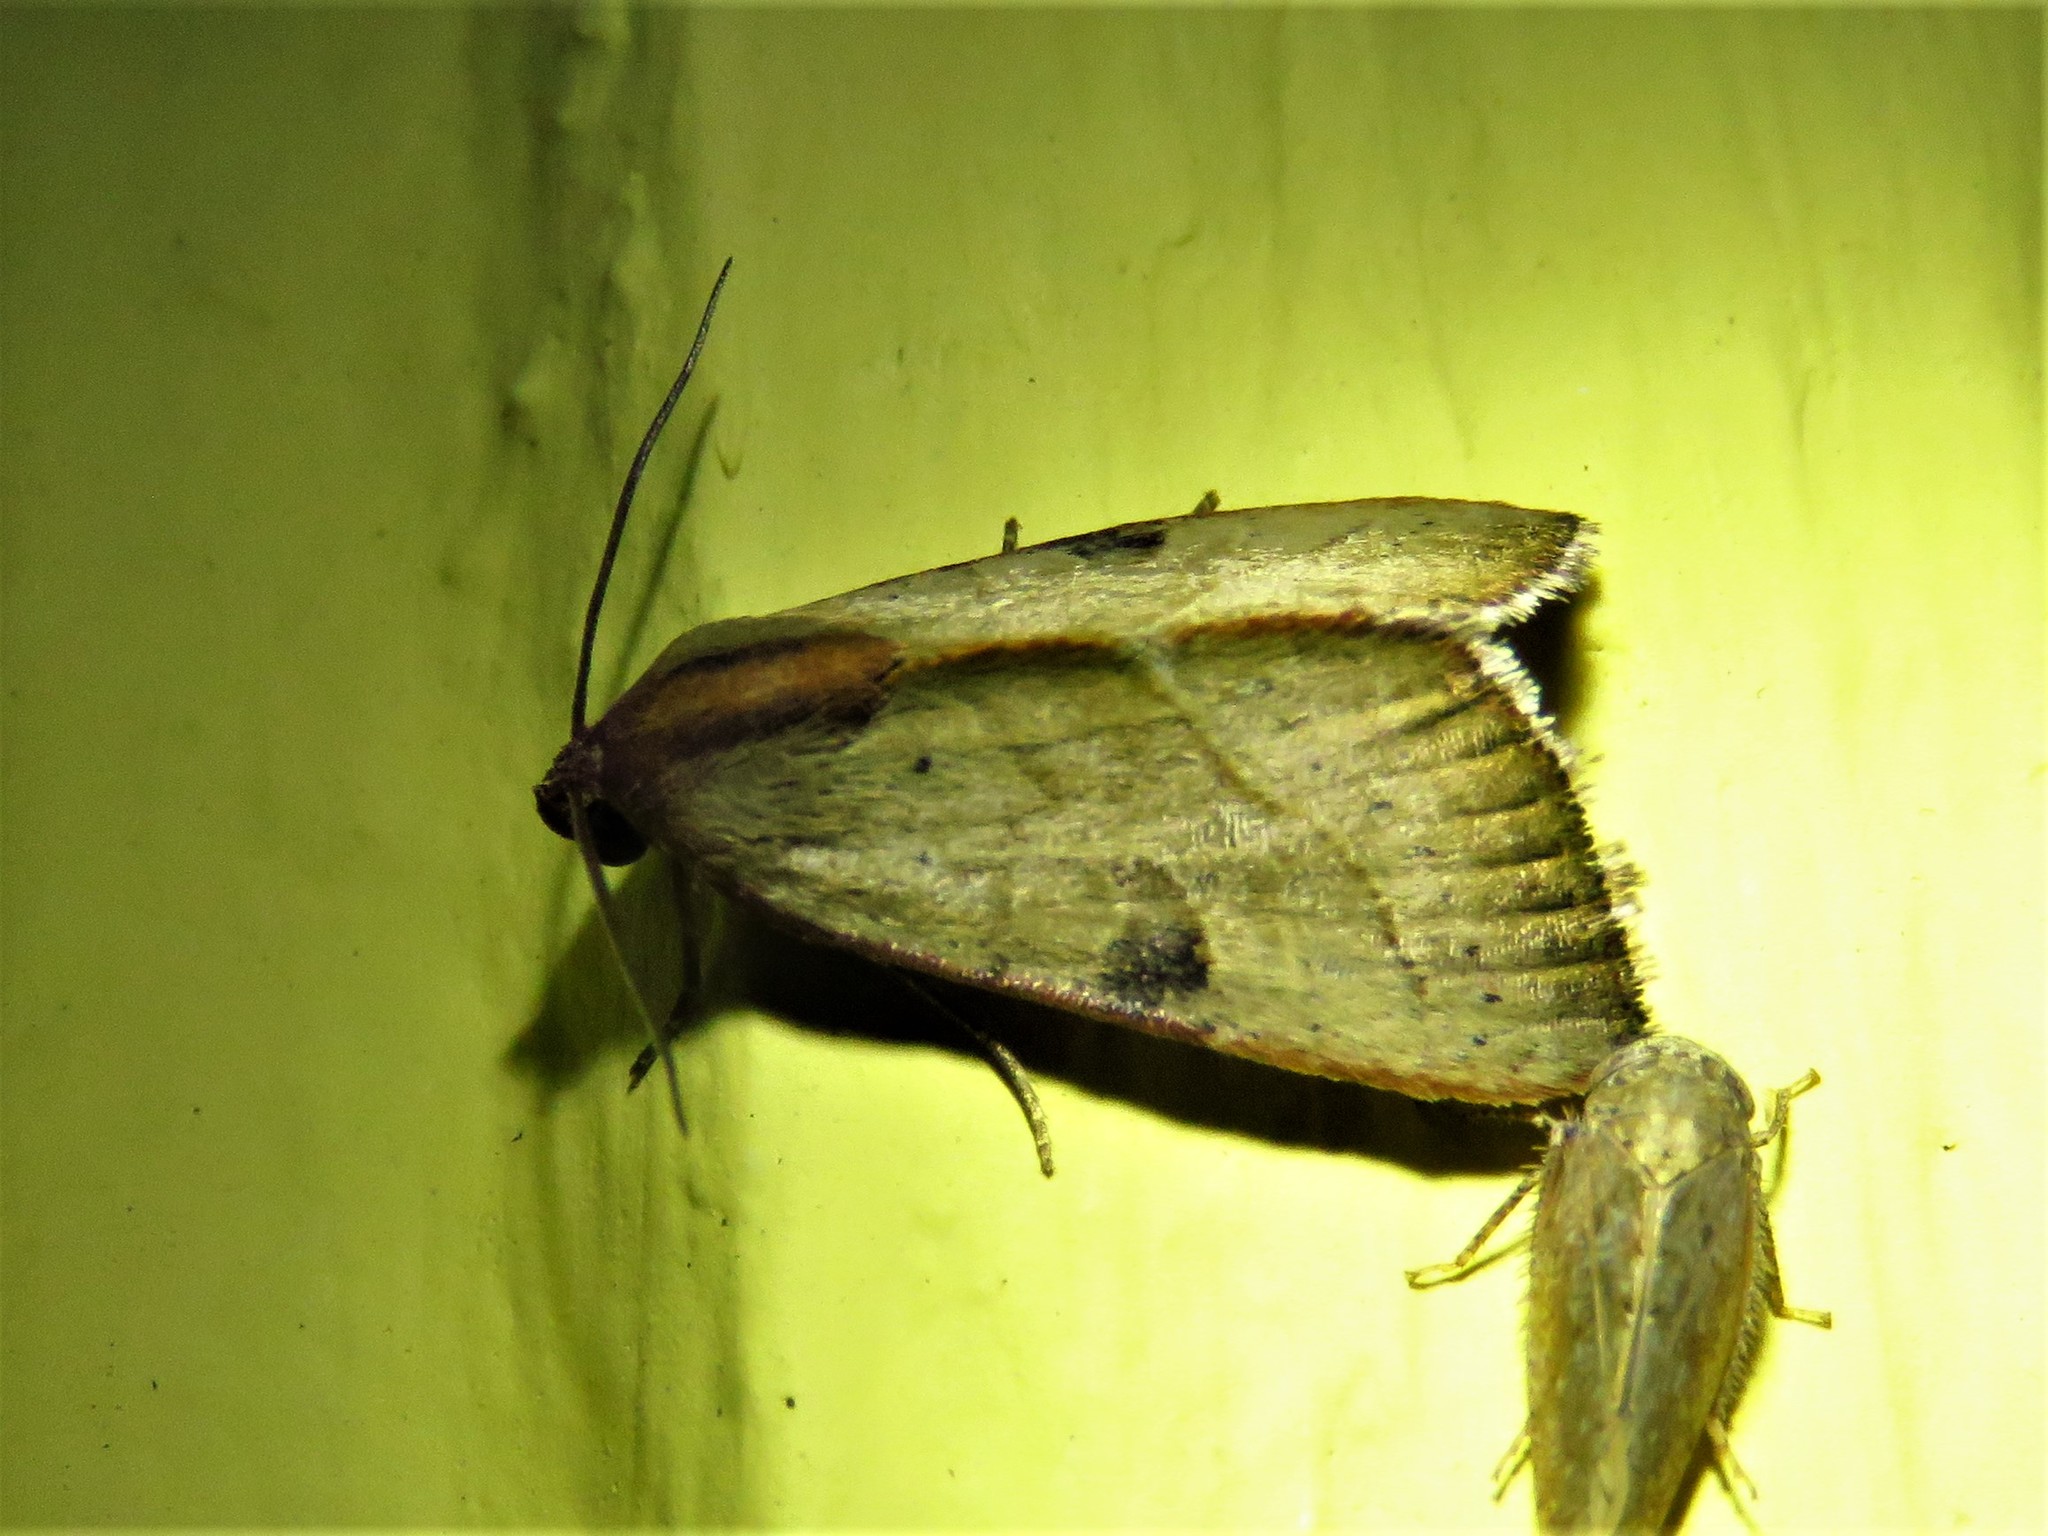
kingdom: Animalia
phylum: Arthropoda
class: Insecta
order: Lepidoptera
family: Noctuidae
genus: Galgula
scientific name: Galgula partita
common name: Wedgeling
